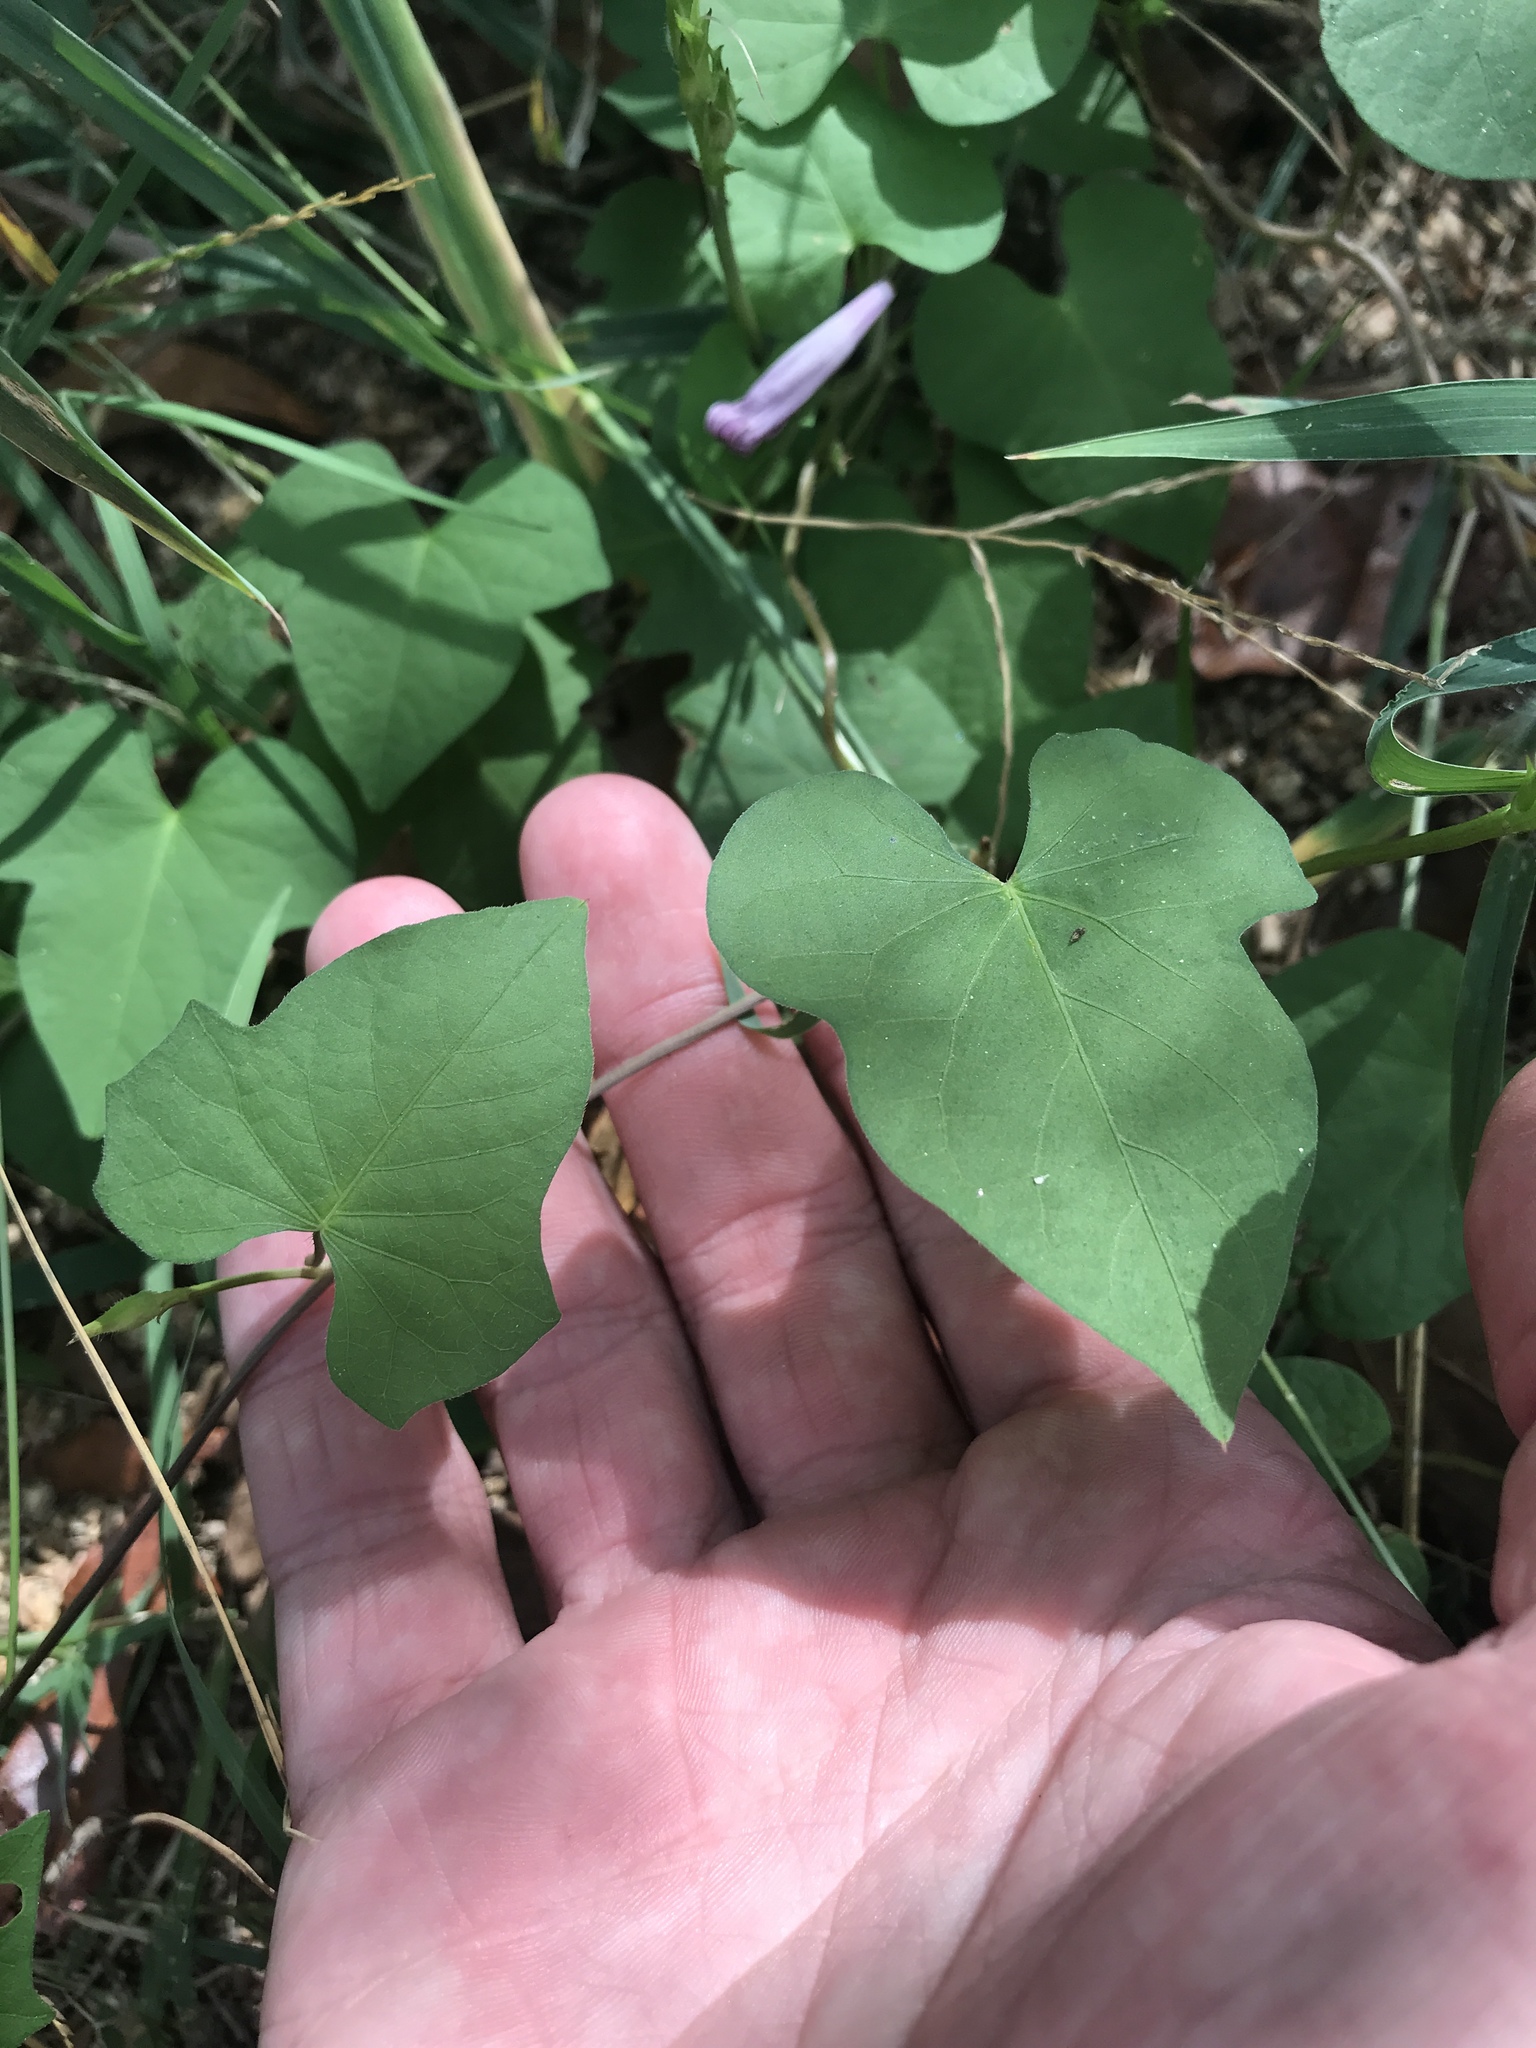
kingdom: Plantae
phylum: Tracheophyta
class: Magnoliopsida
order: Solanales
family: Convolvulaceae
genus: Ipomoea
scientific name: Ipomoea cordatotriloba
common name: Cotton morning glory
